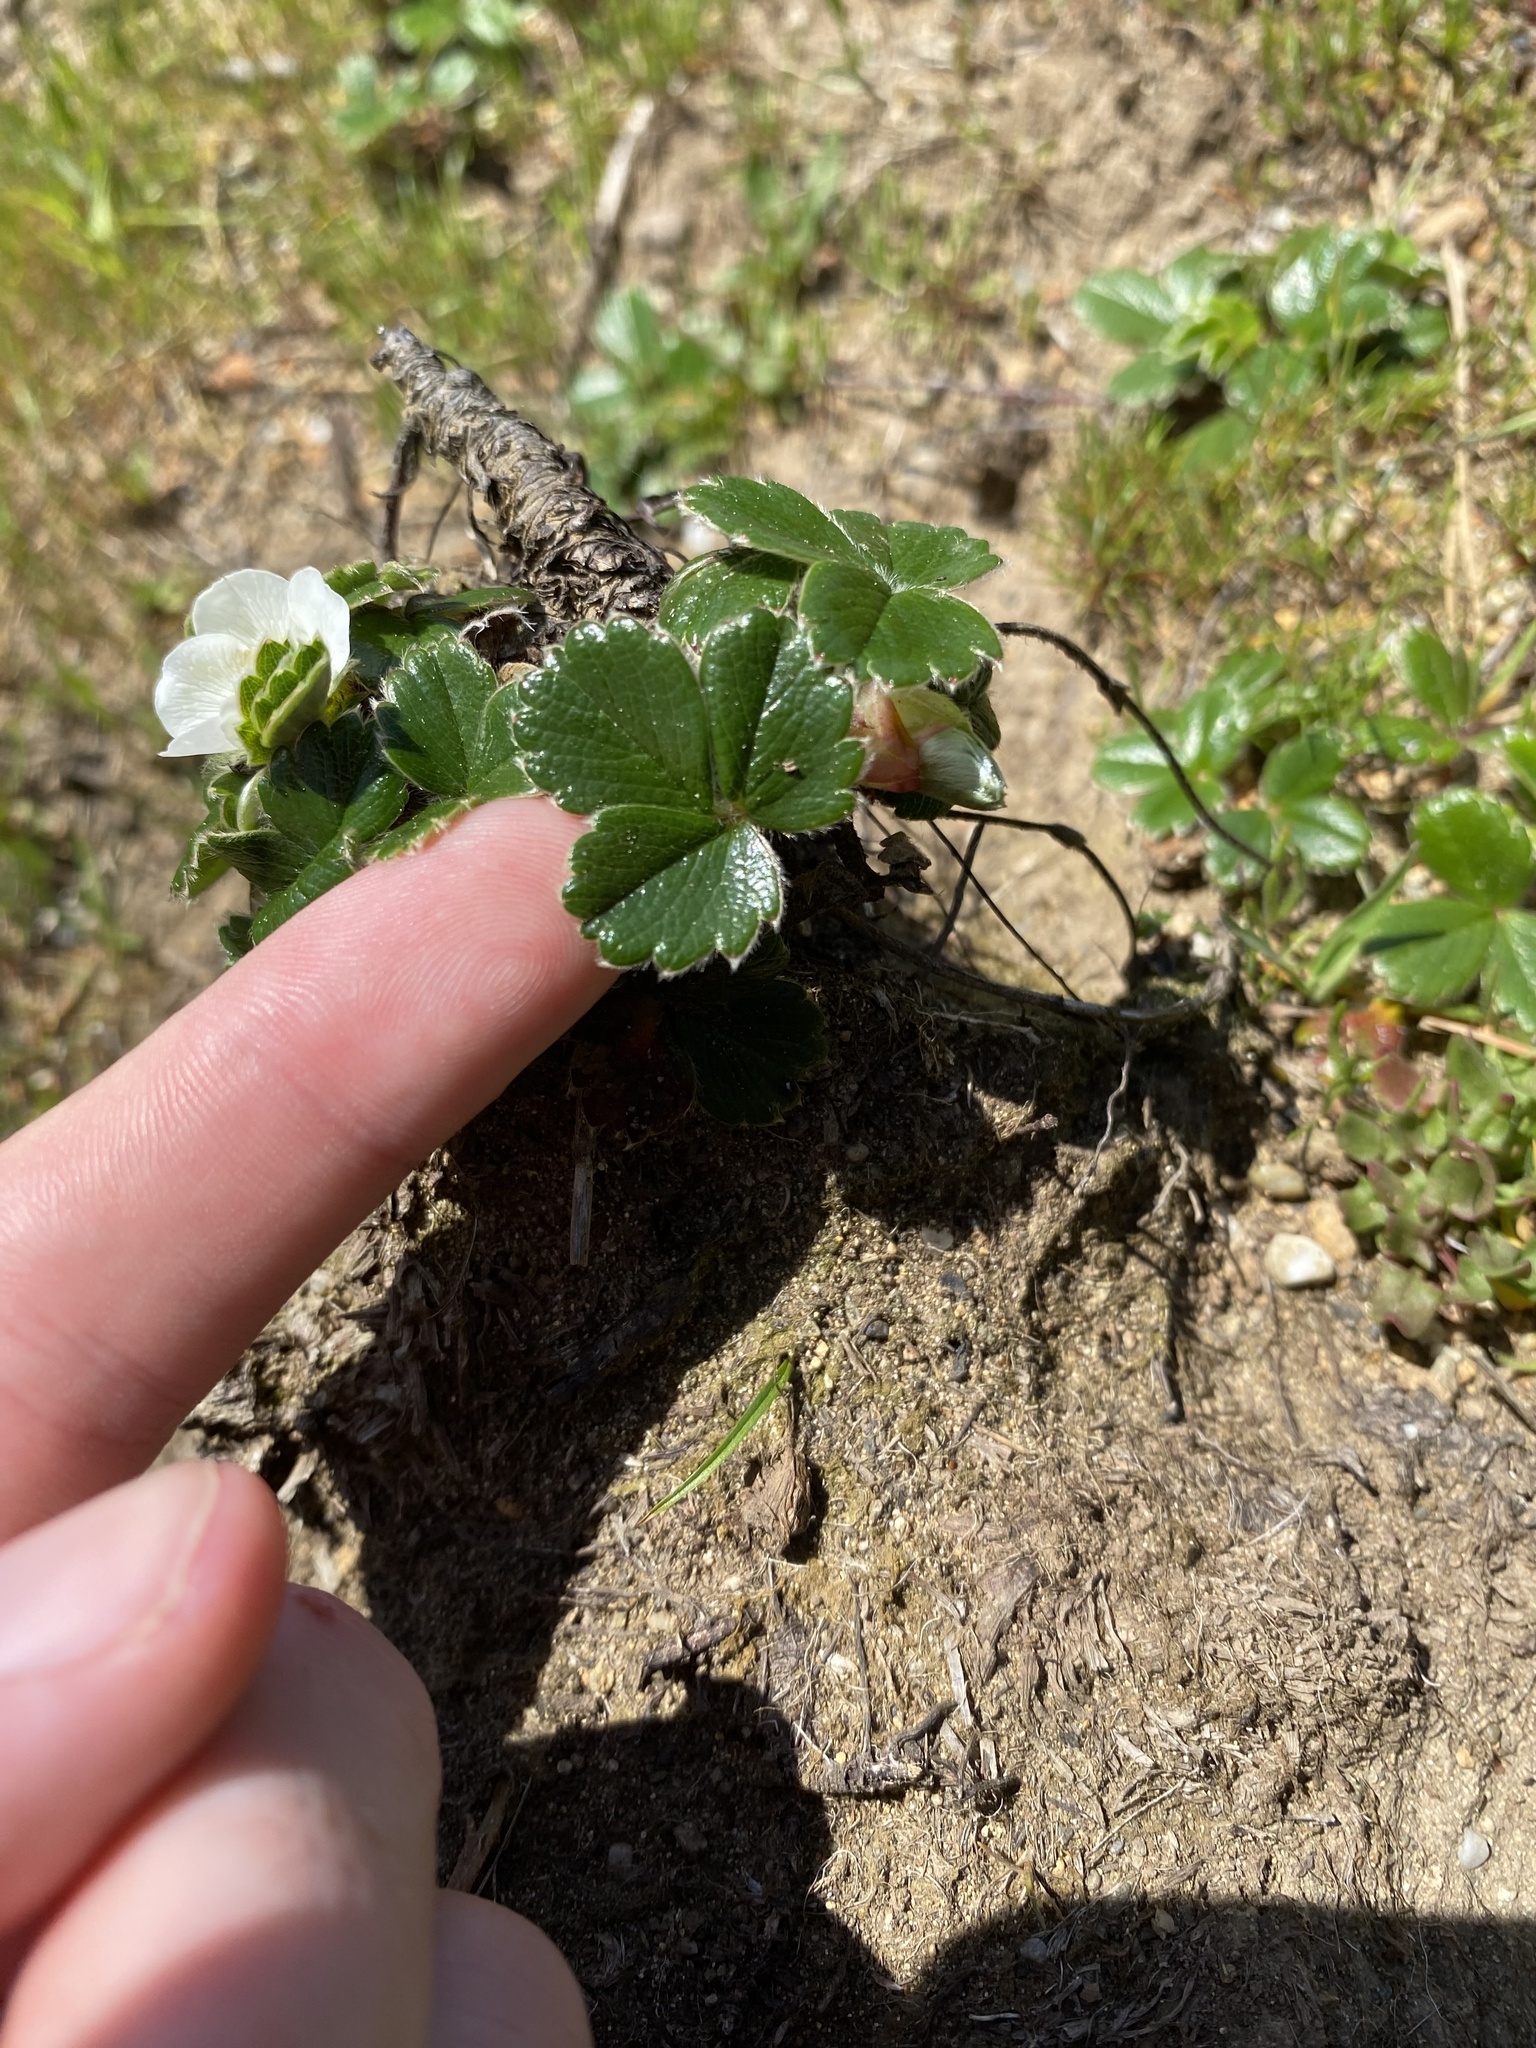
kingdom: Plantae
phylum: Tracheophyta
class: Magnoliopsida
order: Rosales
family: Rosaceae
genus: Fragaria
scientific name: Fragaria chiloensis
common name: Beach strawberry
